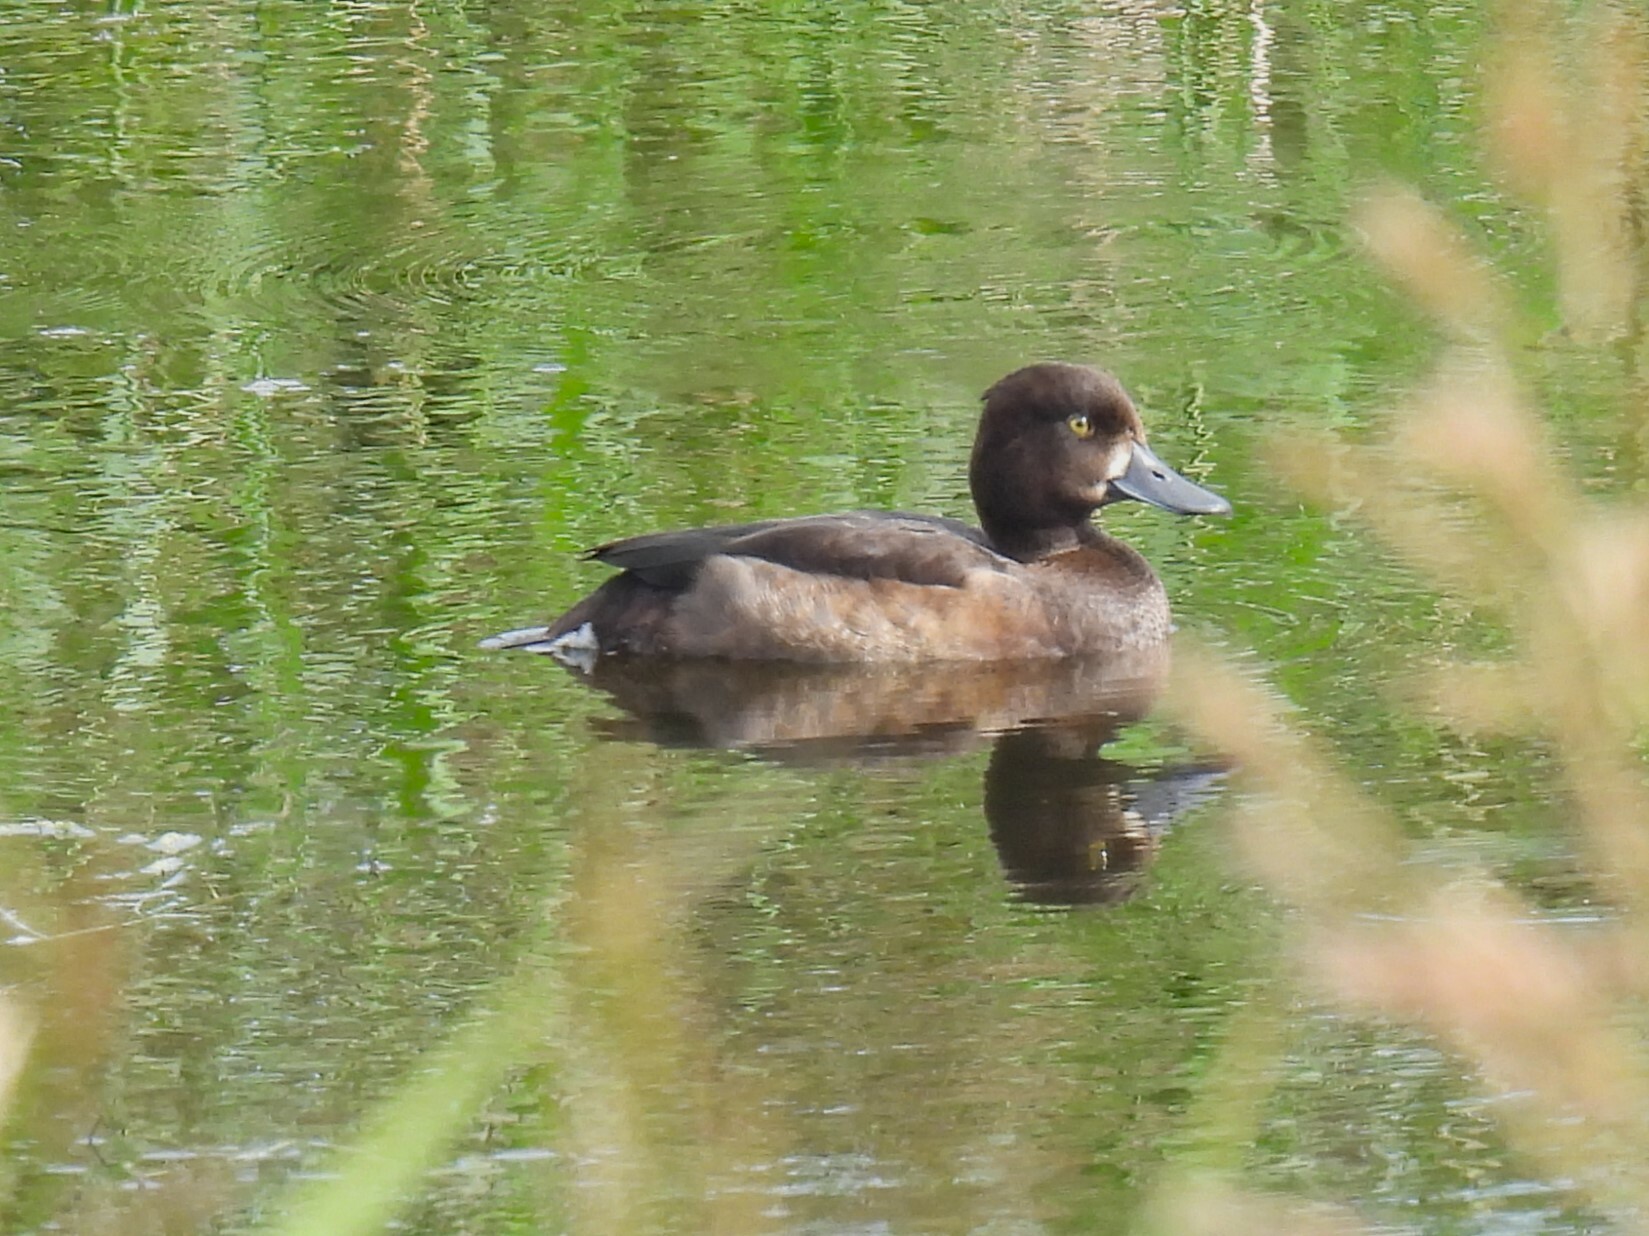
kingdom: Animalia
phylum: Chordata
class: Aves
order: Anseriformes
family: Anatidae
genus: Aythya
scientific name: Aythya fuligula
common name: Tufted duck
